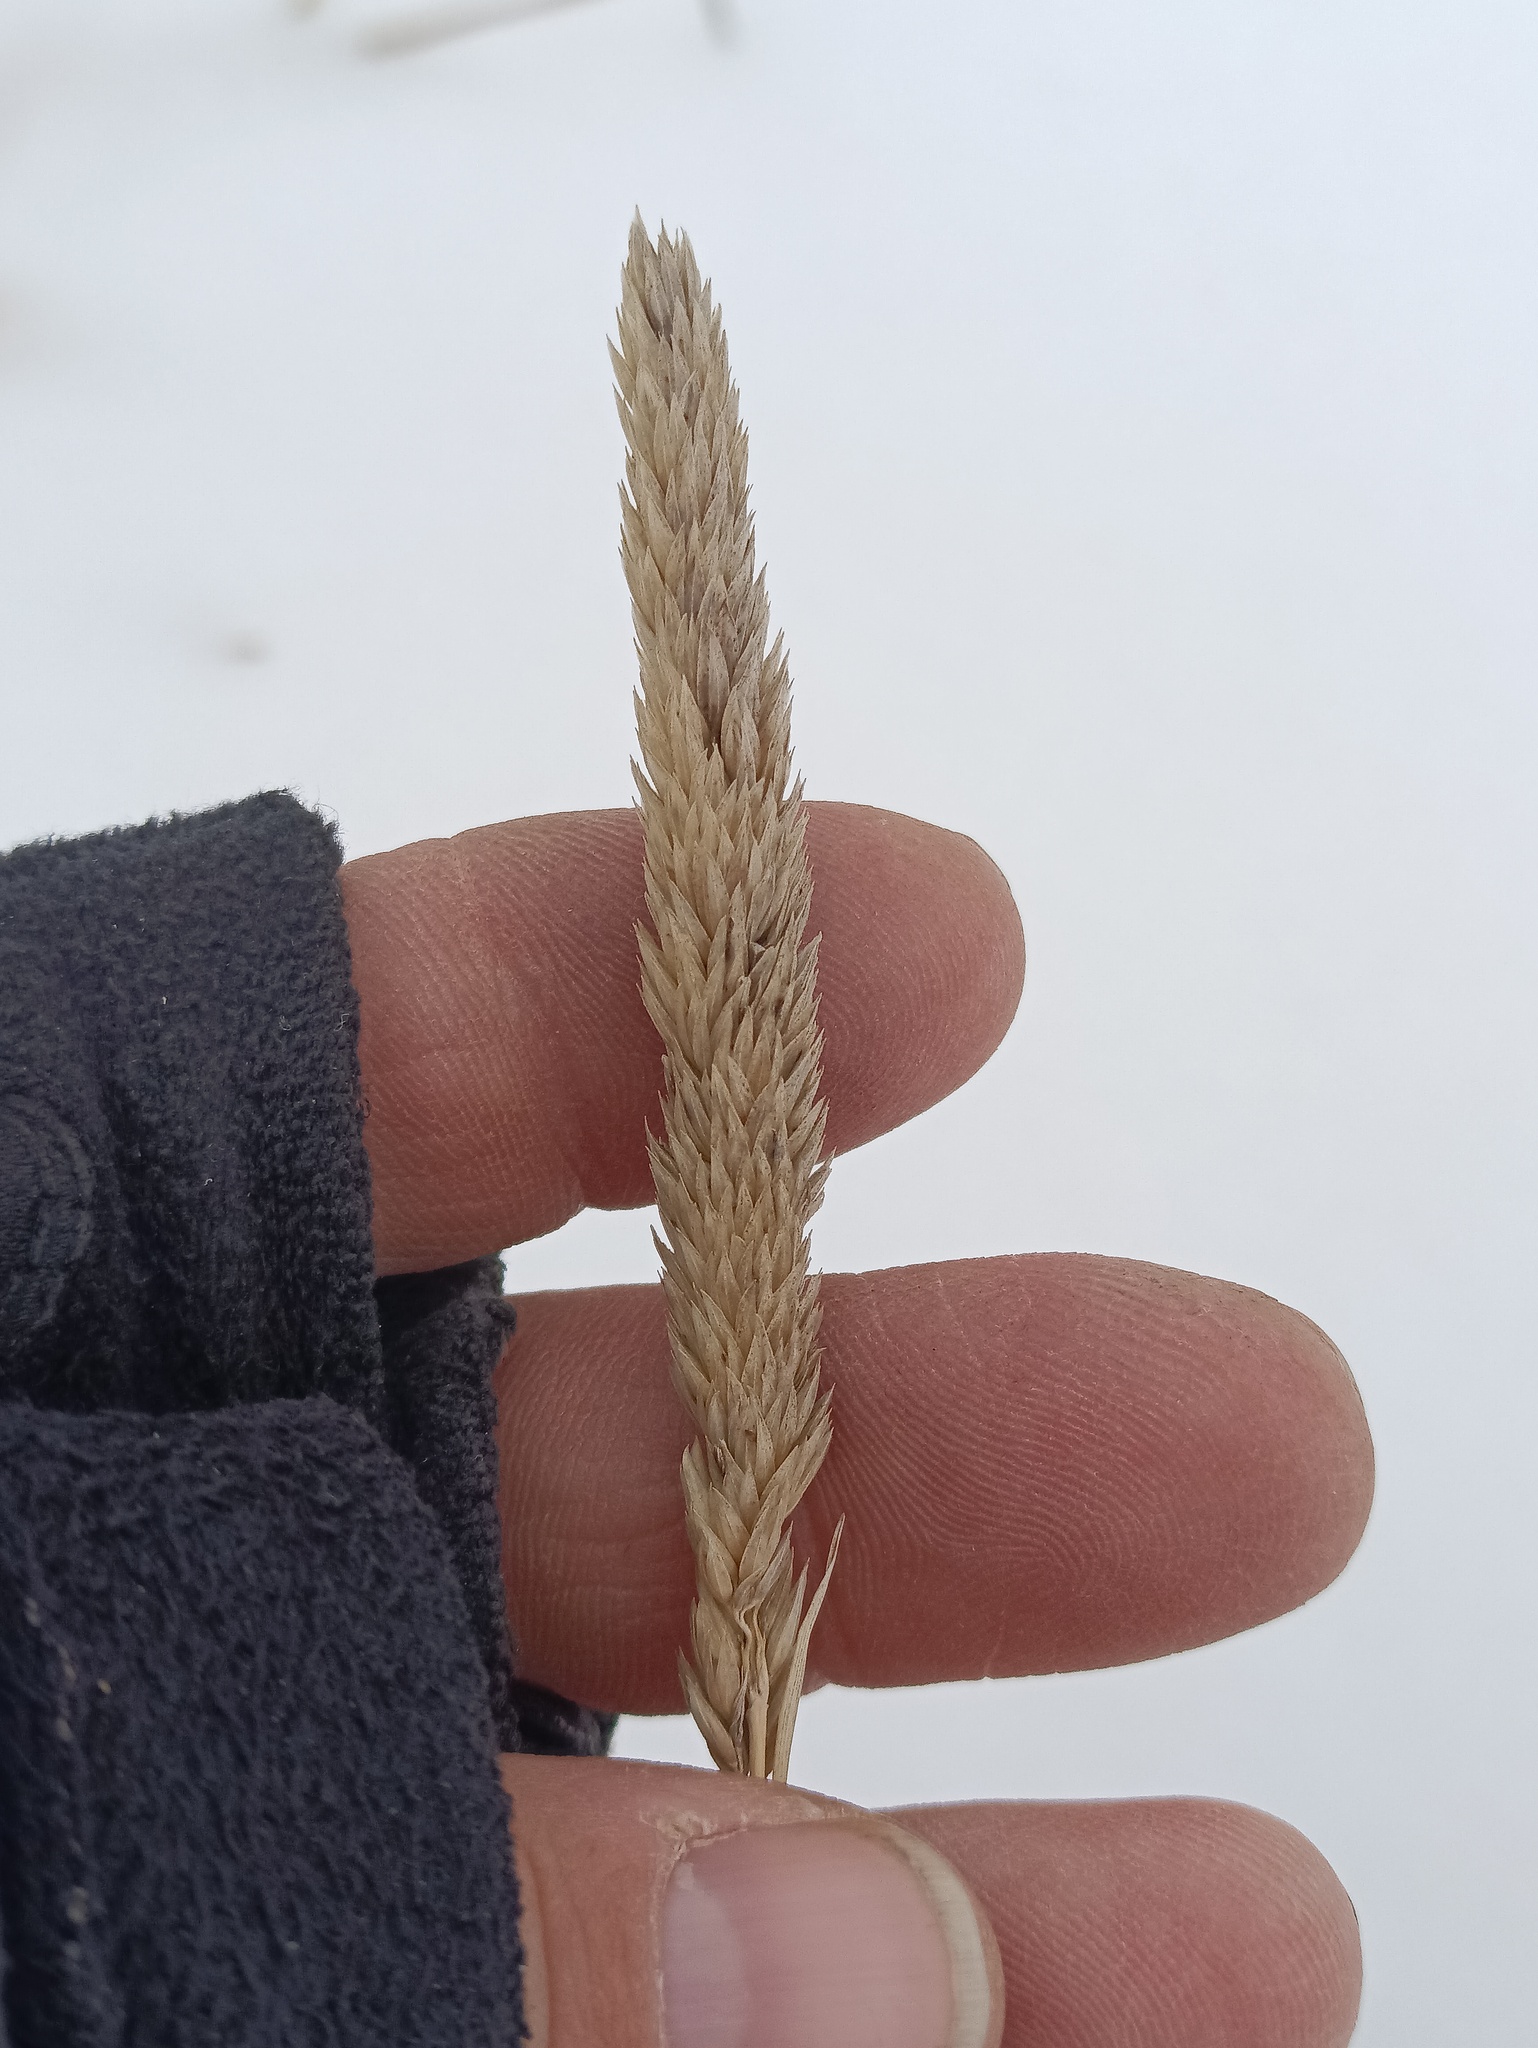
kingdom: Plantae
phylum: Tracheophyta
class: Liliopsida
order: Poales
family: Poaceae
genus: Phalaris
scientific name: Phalaris arundinacea
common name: Reed canary-grass
